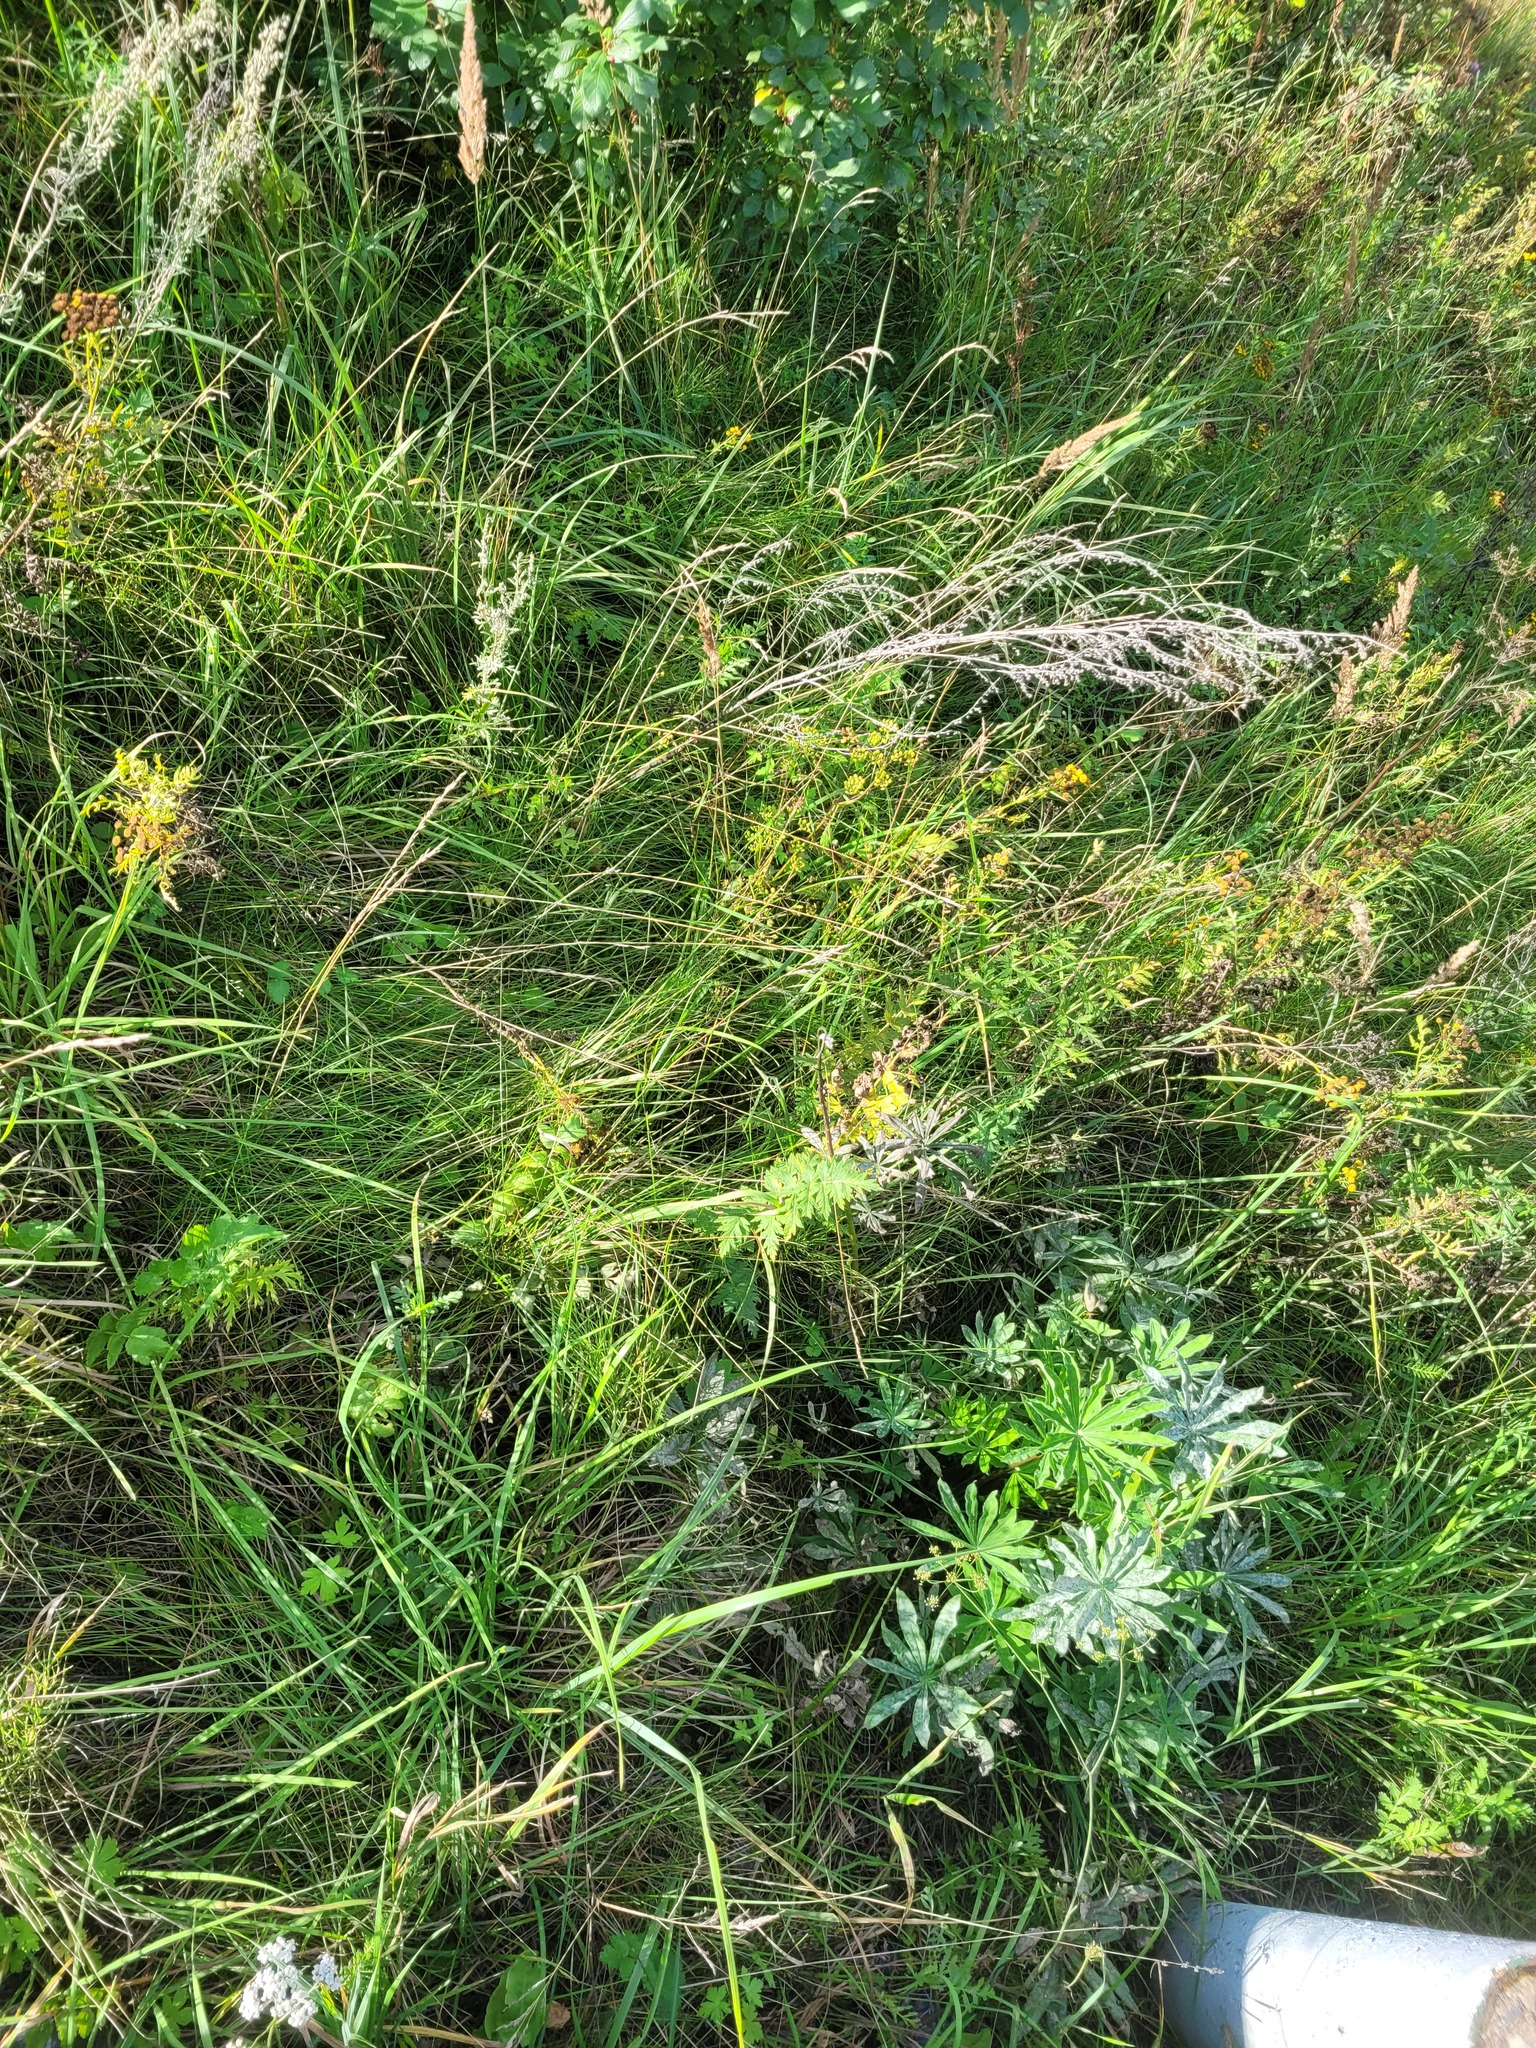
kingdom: Plantae
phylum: Tracheophyta
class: Magnoliopsida
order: Apiales
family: Apiaceae
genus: Seseli
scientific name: Seseli libanotis
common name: Mooncarrot
